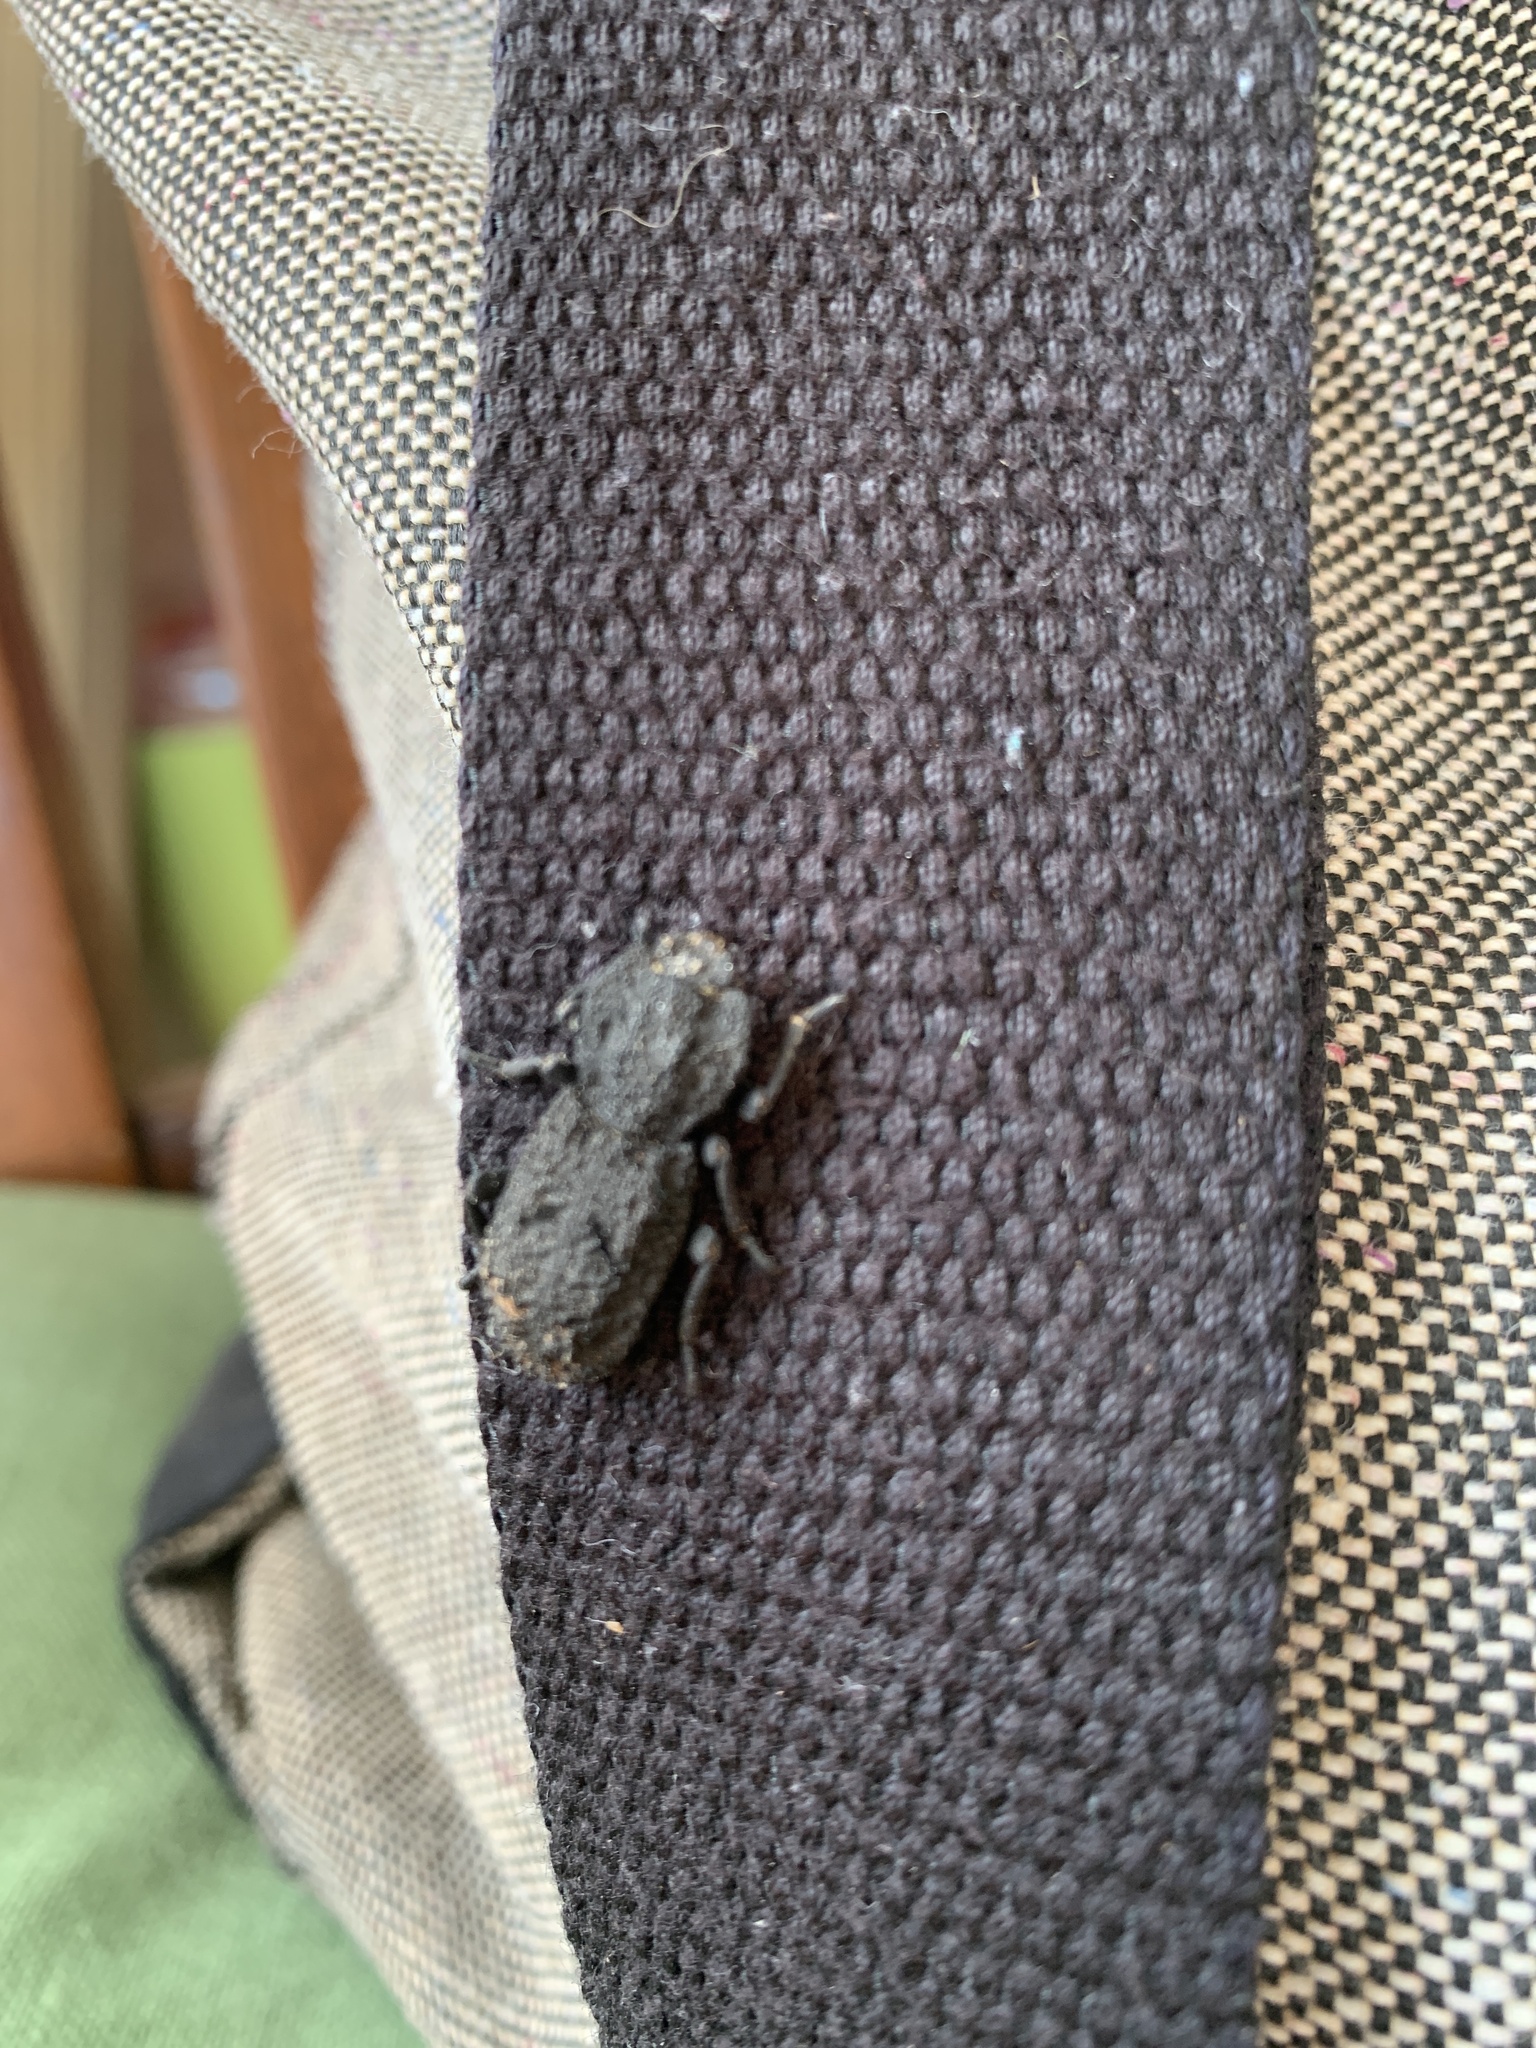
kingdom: Animalia
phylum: Arthropoda
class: Insecta
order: Coleoptera
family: Zopheridae
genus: Phloeodes
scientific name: Phloeodes diabolicus
